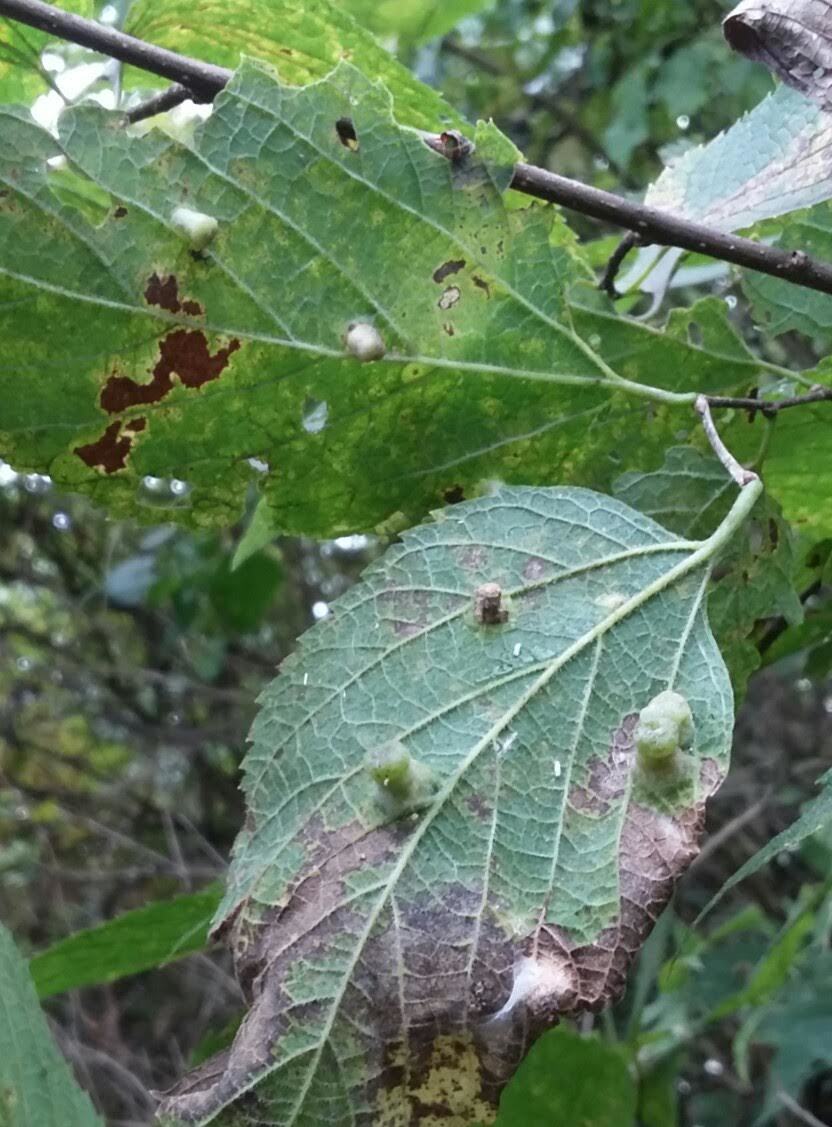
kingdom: Animalia
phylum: Arthropoda
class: Insecta
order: Hemiptera
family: Aphalaridae
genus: Pachypsylla
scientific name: Pachypsylla celtidismamma
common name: Hackberry nipplegall psyllid
